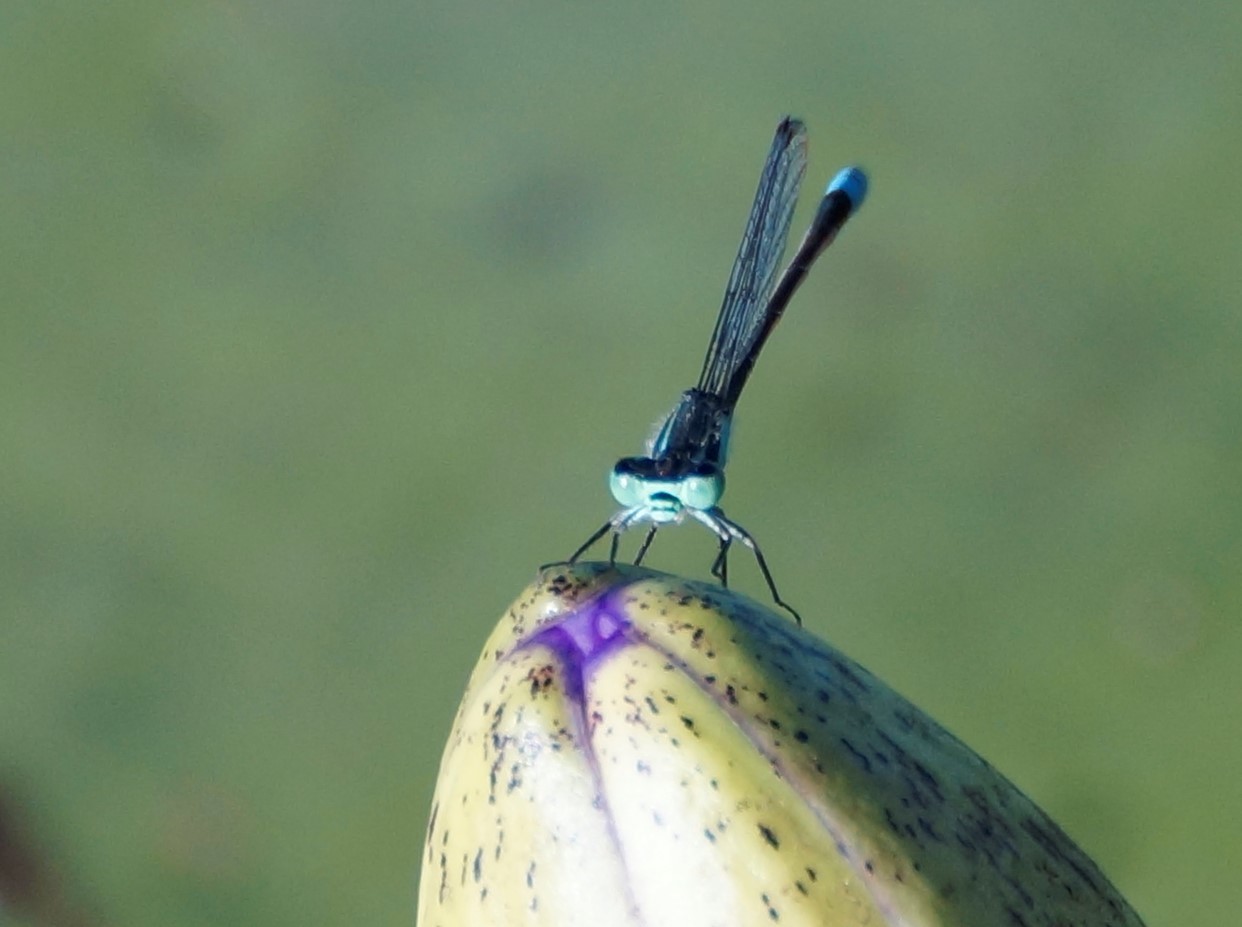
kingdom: Animalia
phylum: Arthropoda
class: Insecta
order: Odonata
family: Coenagrionidae
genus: Ischnura
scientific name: Ischnura heterosticta
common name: Common bluetail
